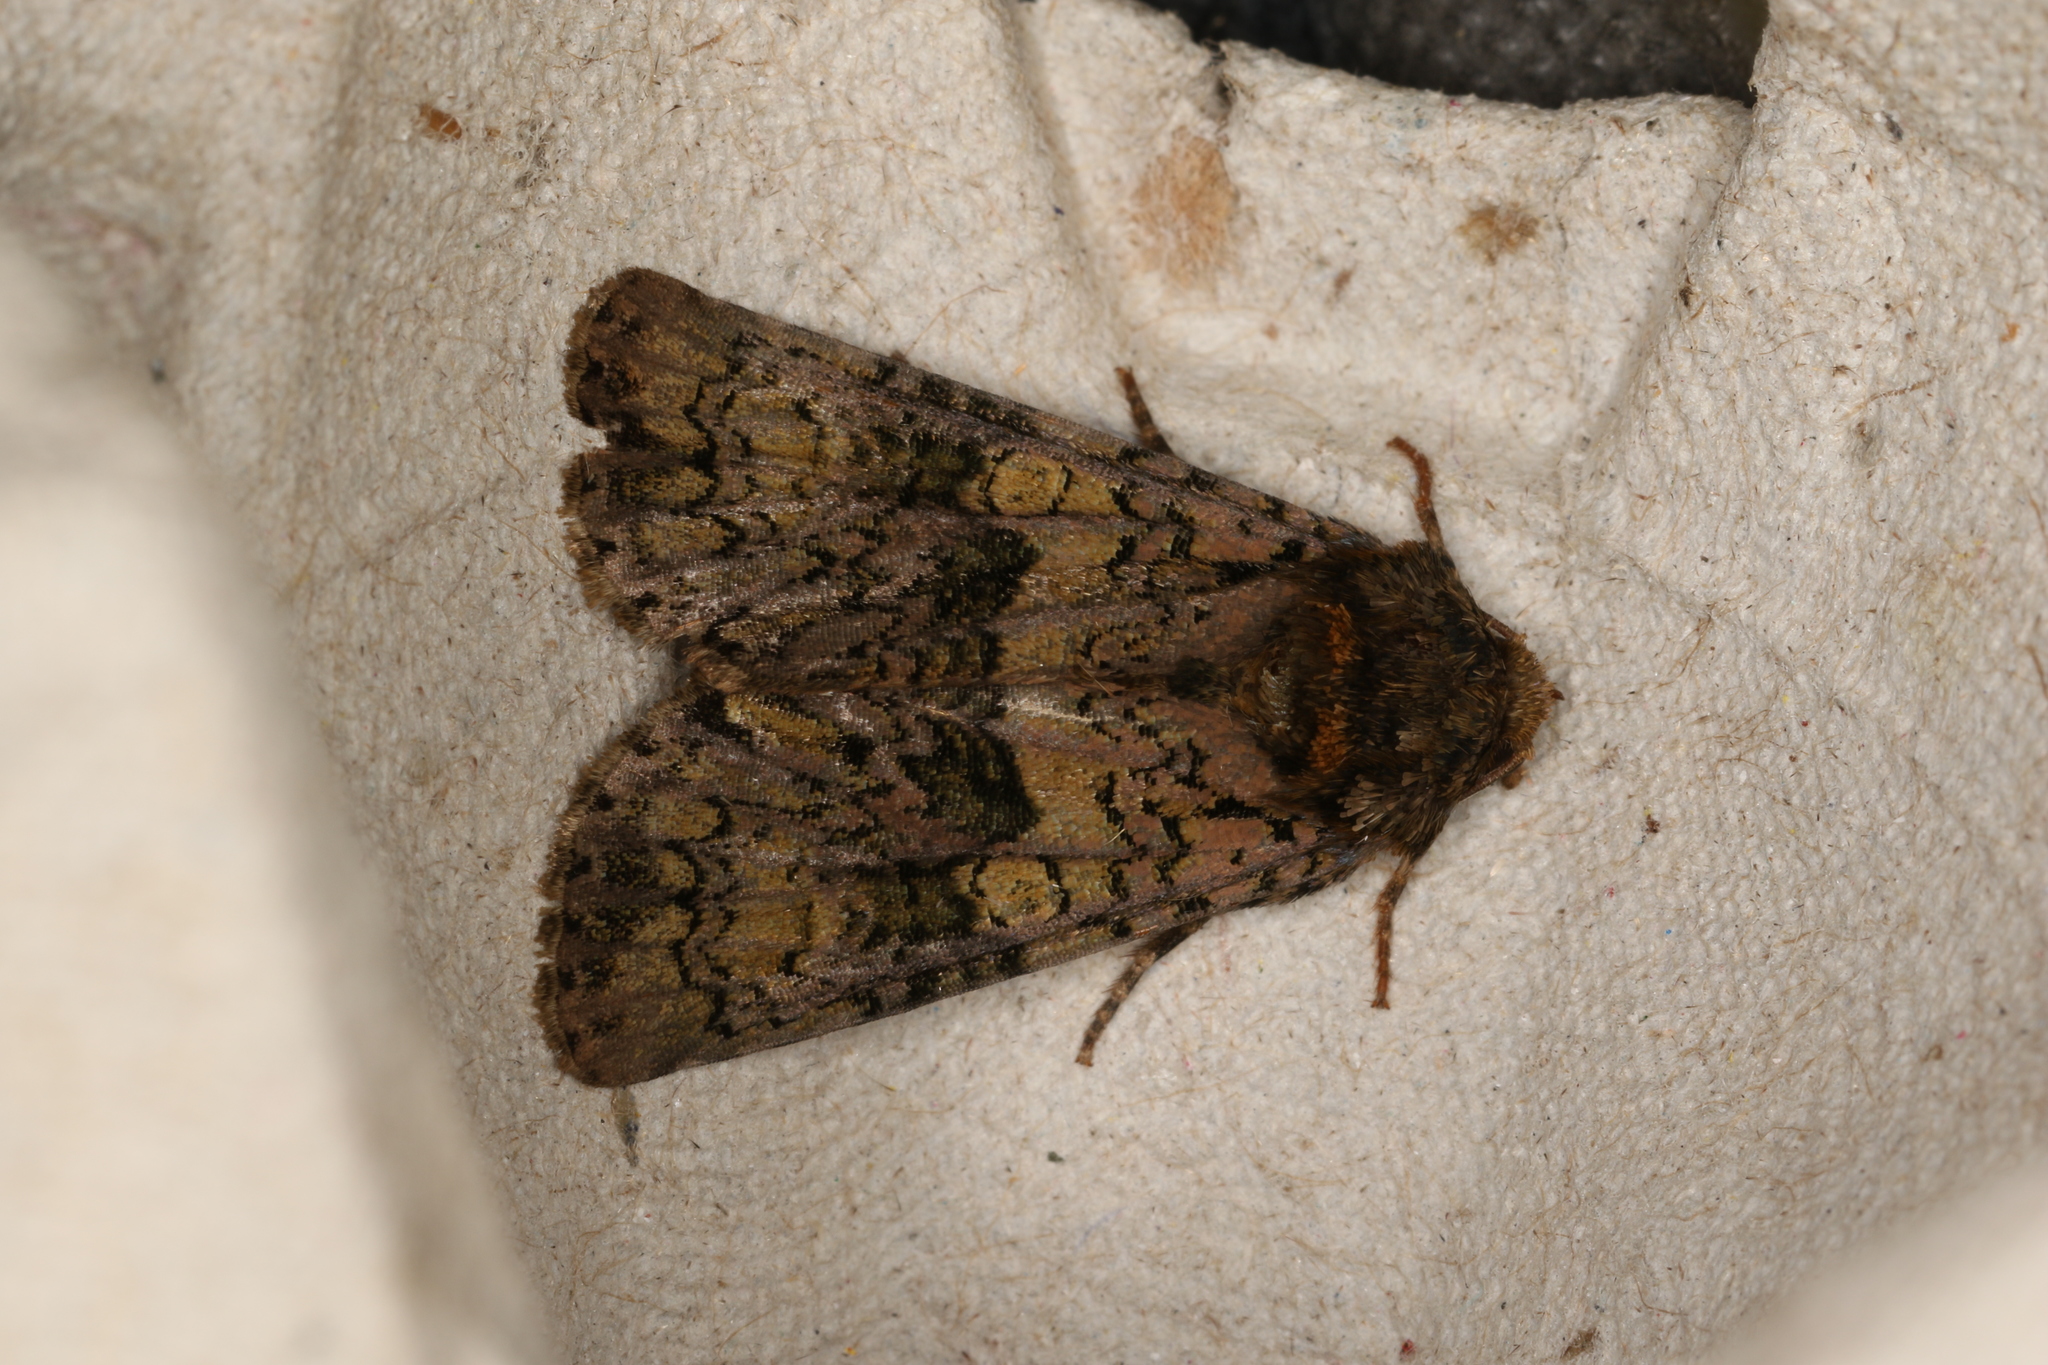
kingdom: Animalia
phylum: Arthropoda
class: Insecta
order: Lepidoptera
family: Noctuidae
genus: Craniophora
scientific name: Craniophora ligustri
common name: Coronet
